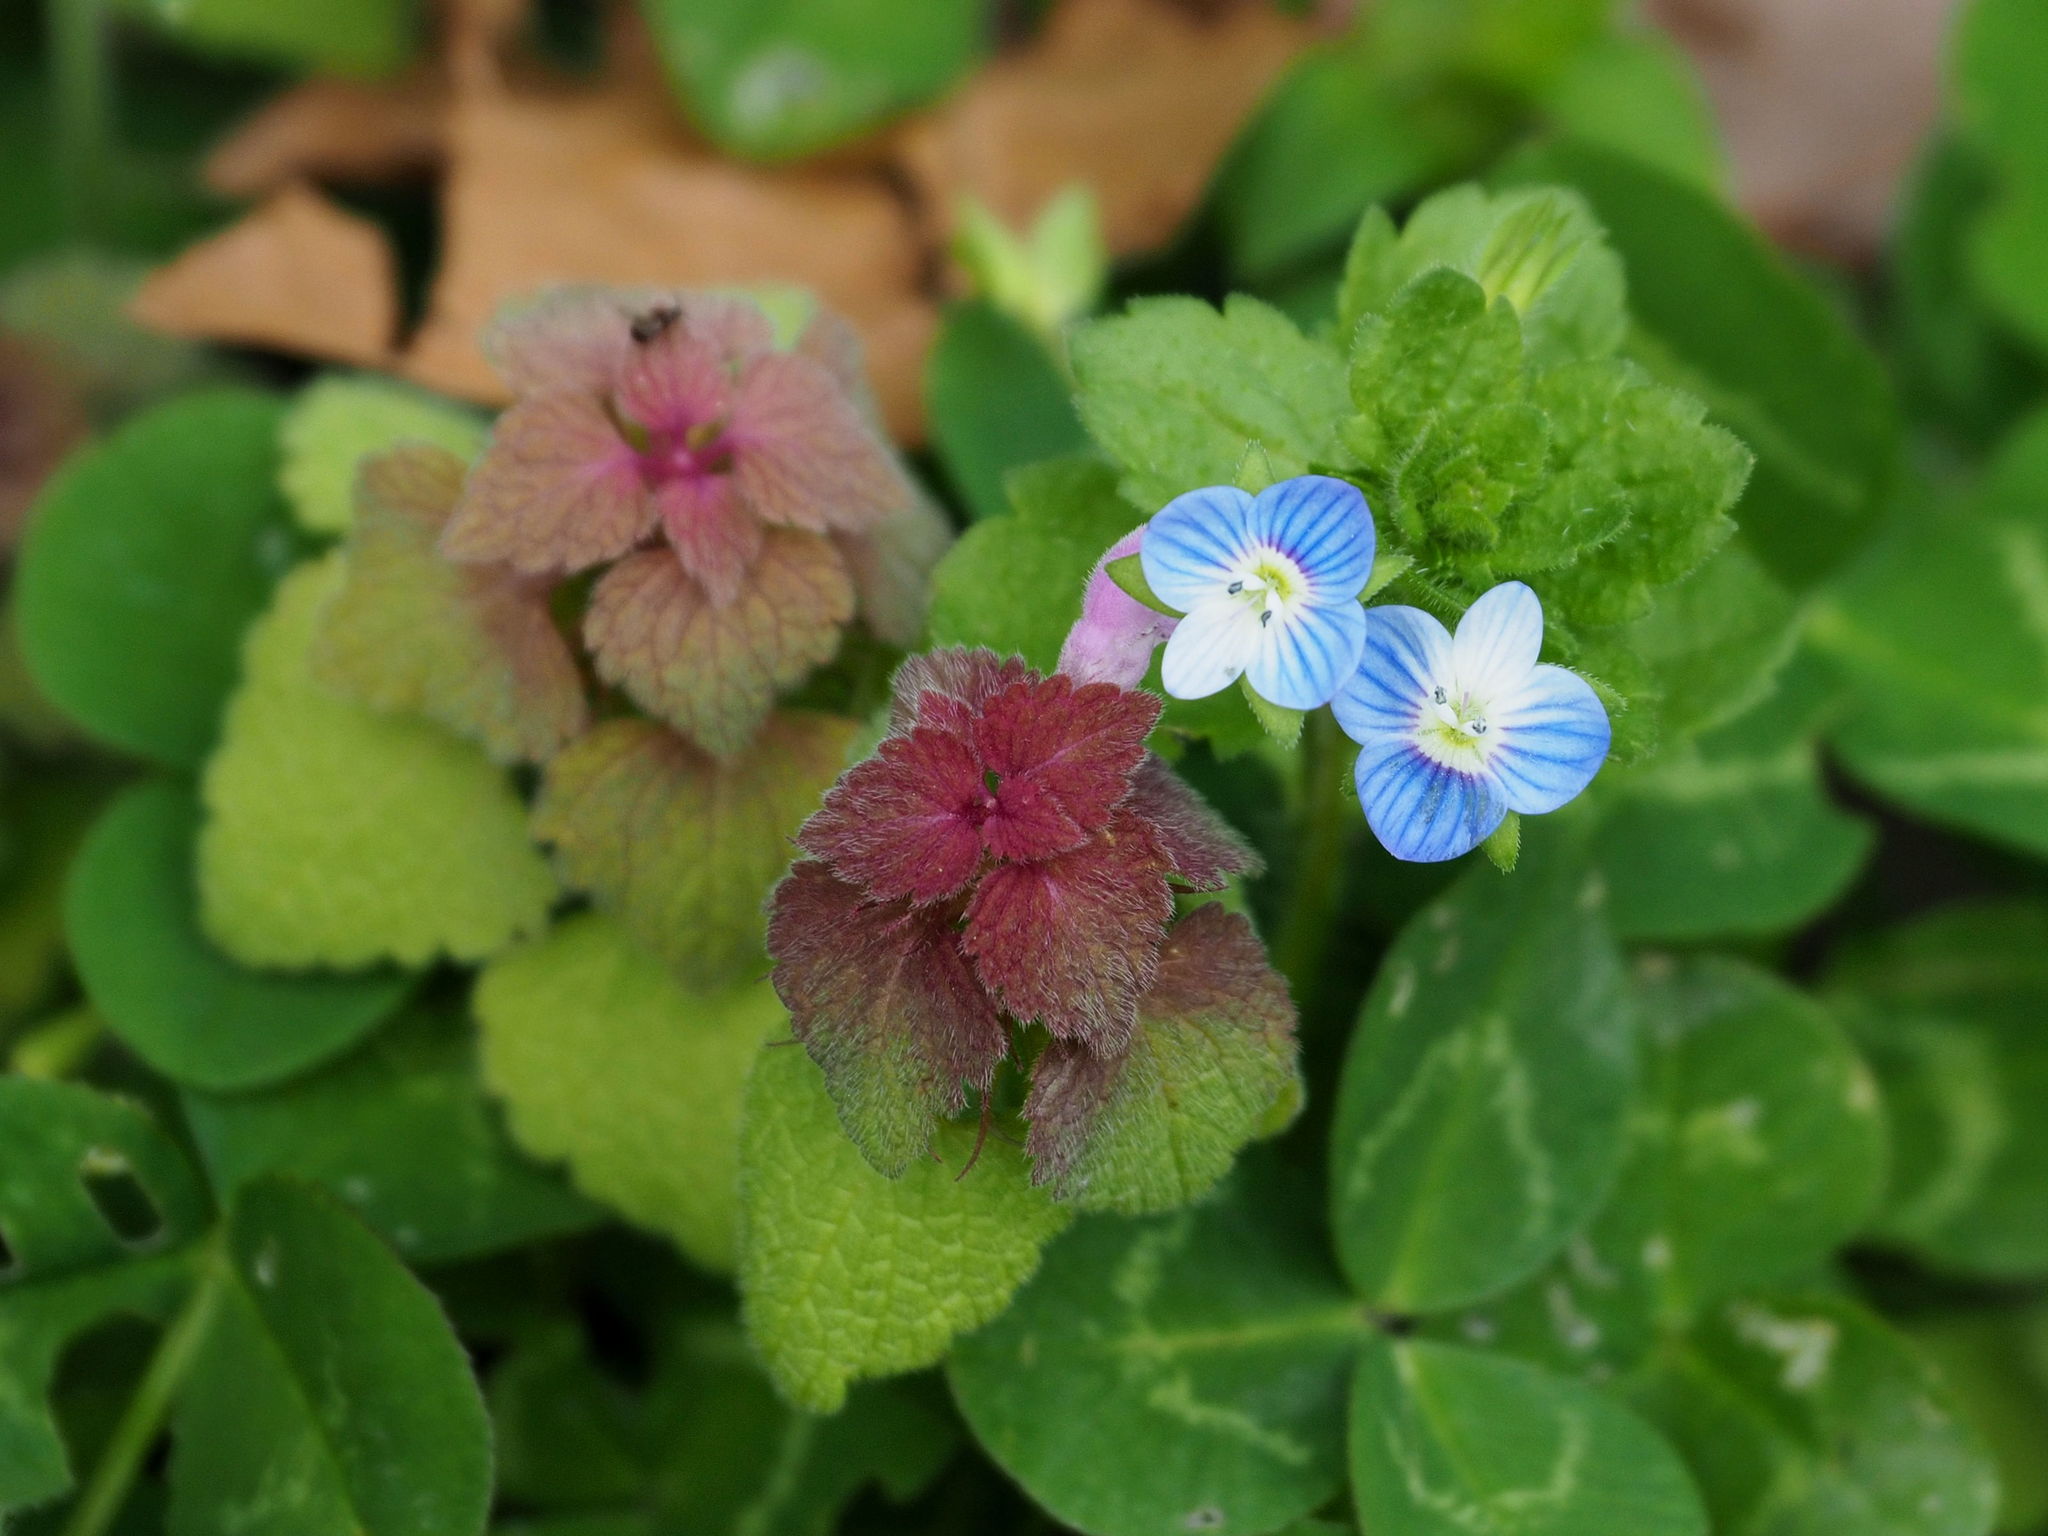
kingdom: Plantae
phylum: Tracheophyta
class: Magnoliopsida
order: Lamiales
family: Plantaginaceae
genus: Veronica
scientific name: Veronica persica
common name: Common field-speedwell
